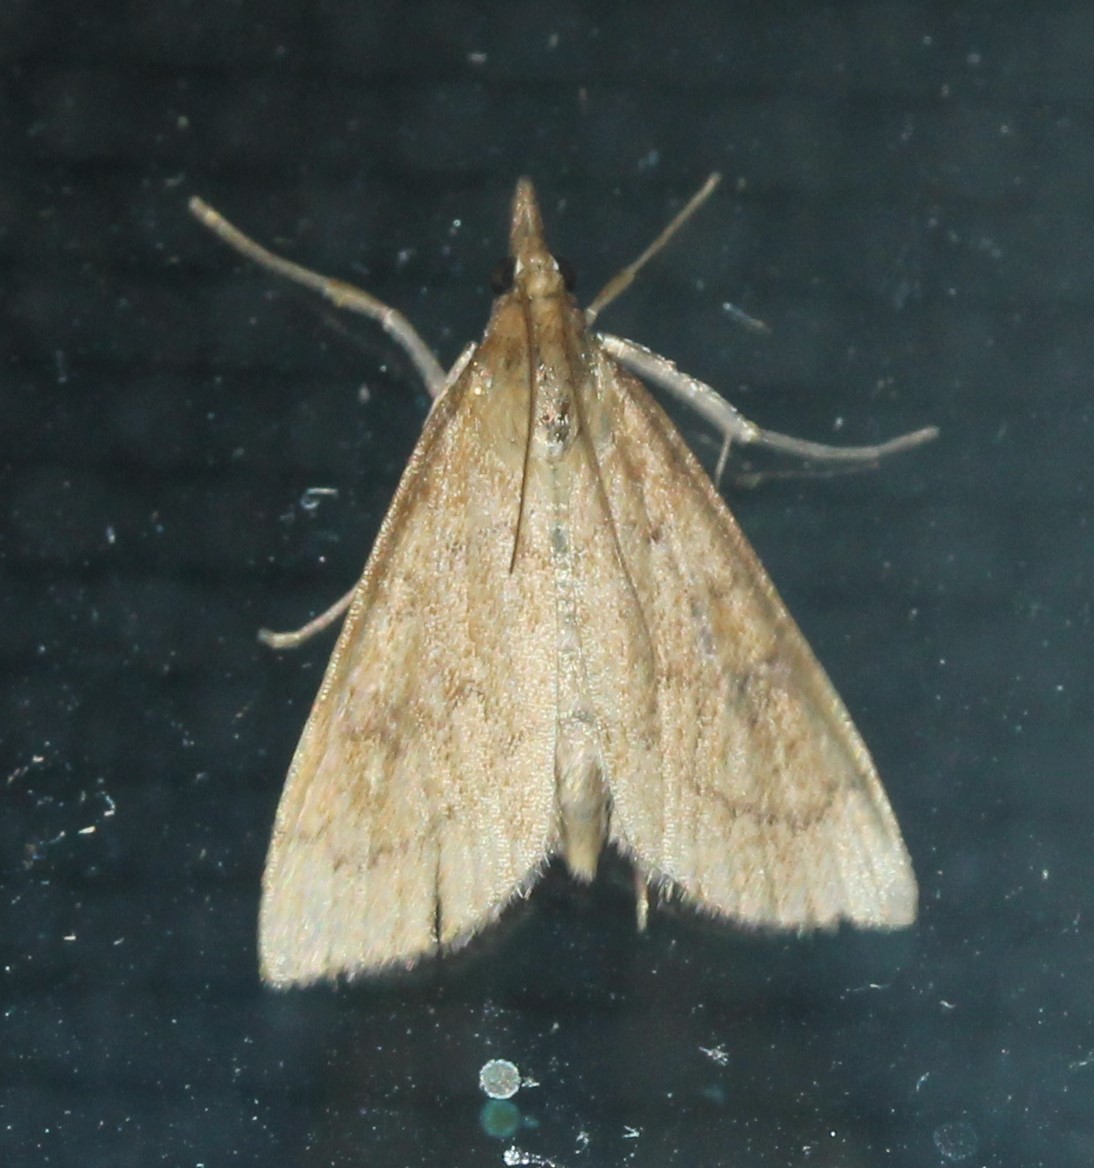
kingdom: Animalia
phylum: Arthropoda
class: Insecta
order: Lepidoptera
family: Crambidae
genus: Udea
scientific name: Udea rubigalis
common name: Celery leaftier moth
